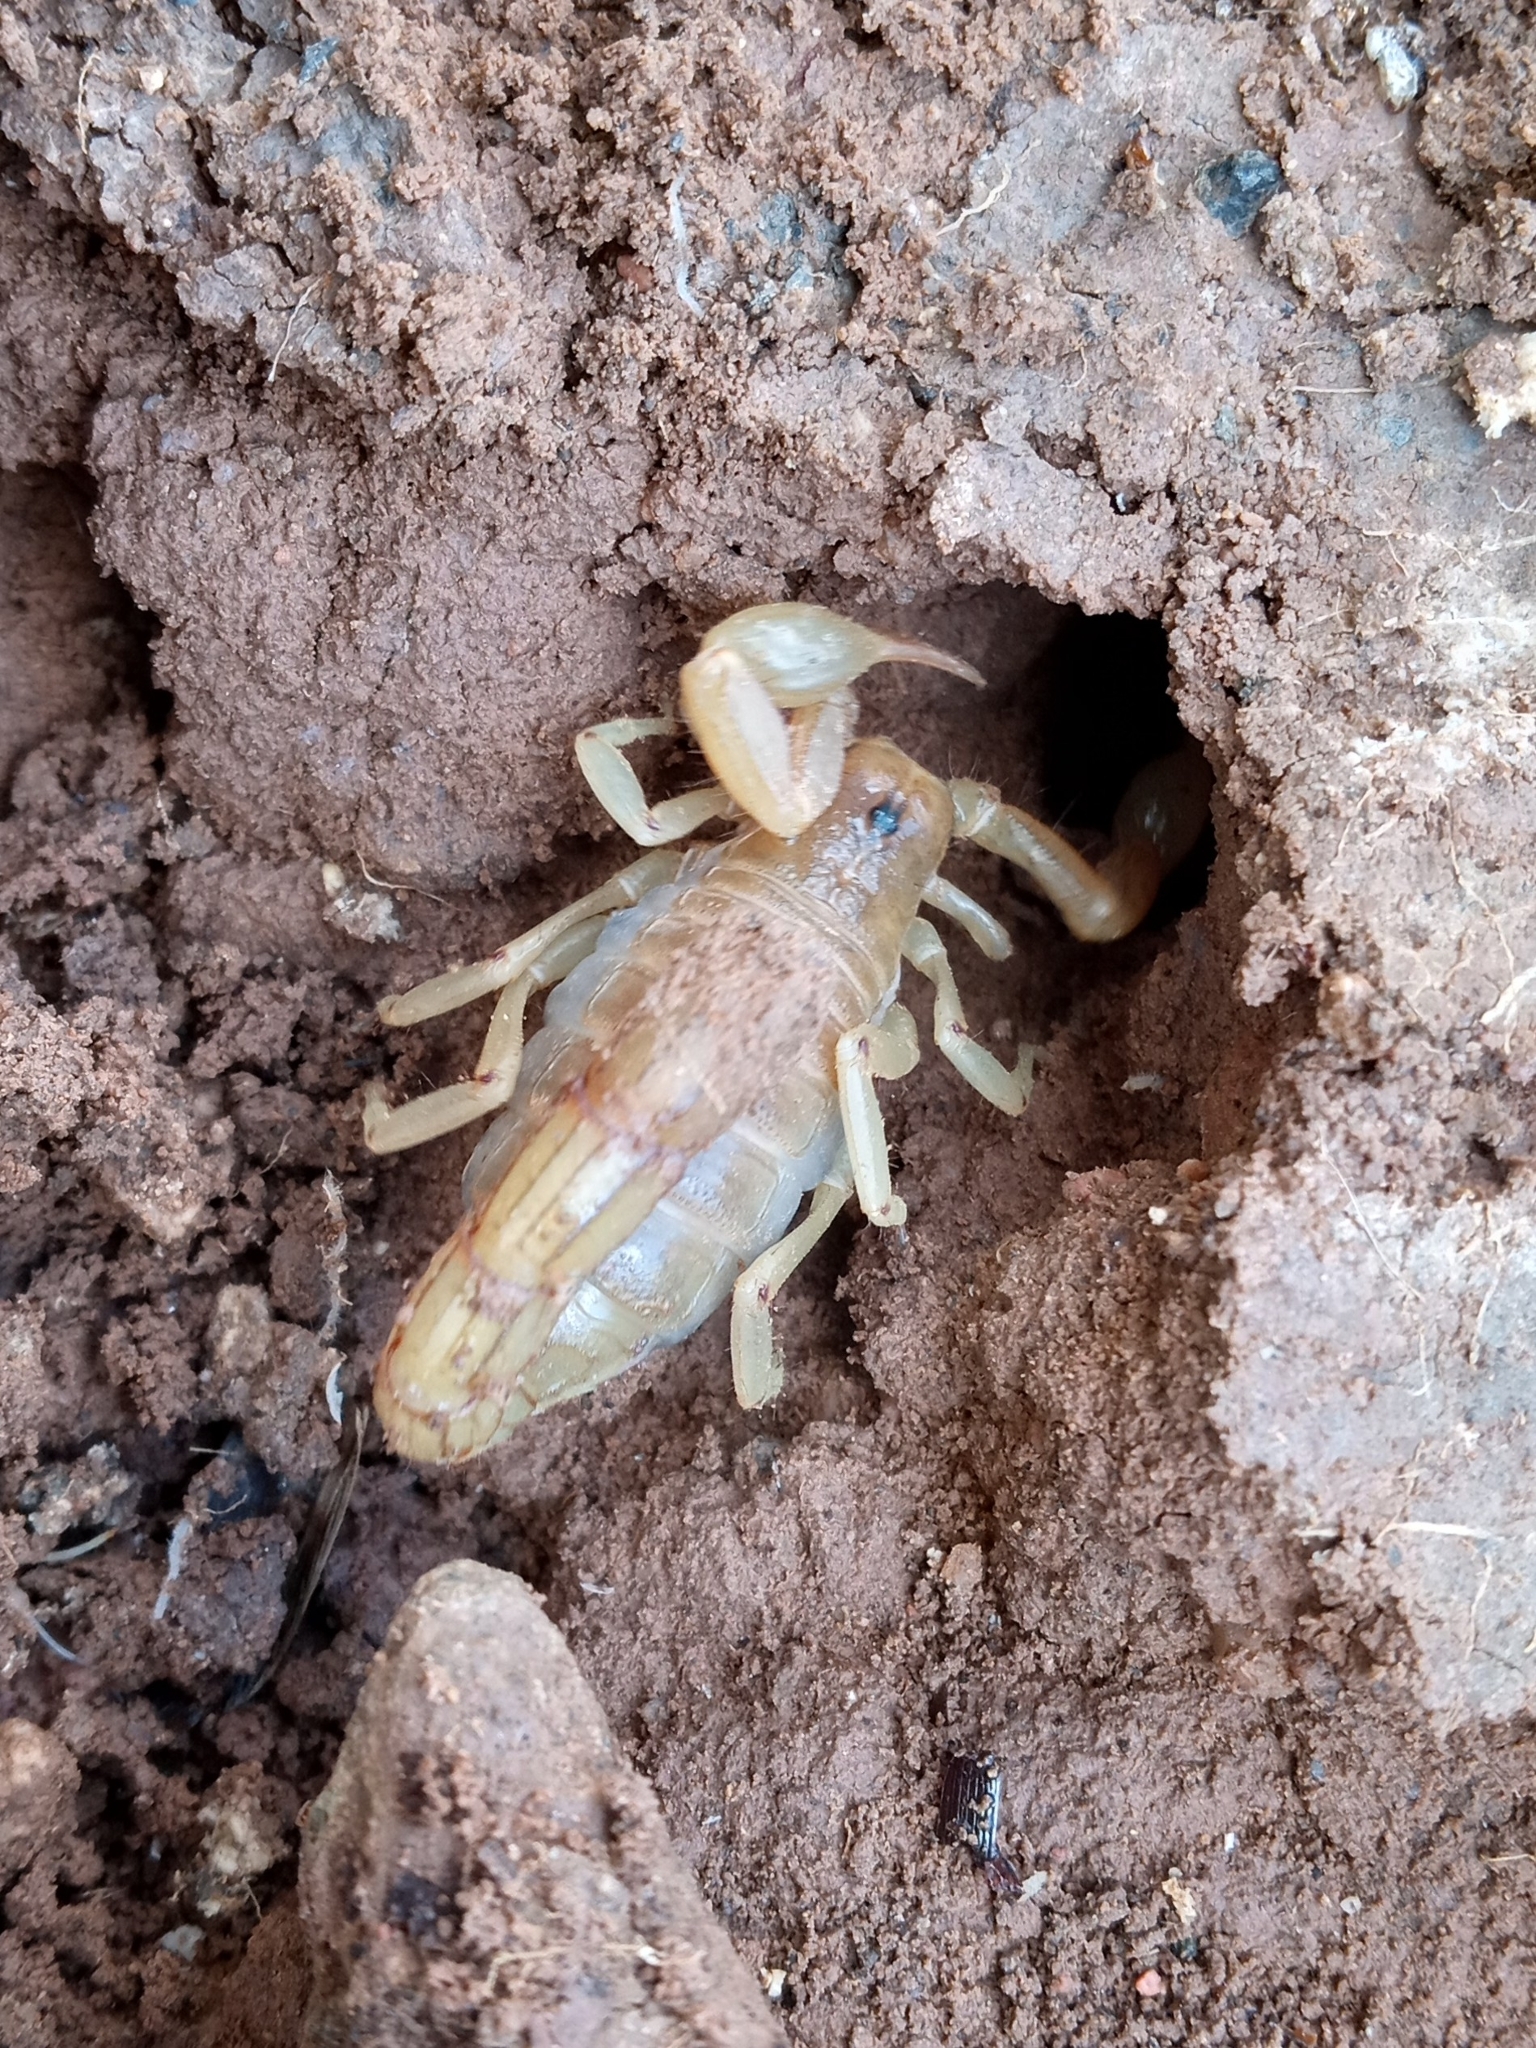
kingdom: Animalia
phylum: Arthropoda
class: Arachnida
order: Scorpiones
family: Vaejovidae
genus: Paravaejovis
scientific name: Paravaejovis spinigerus
